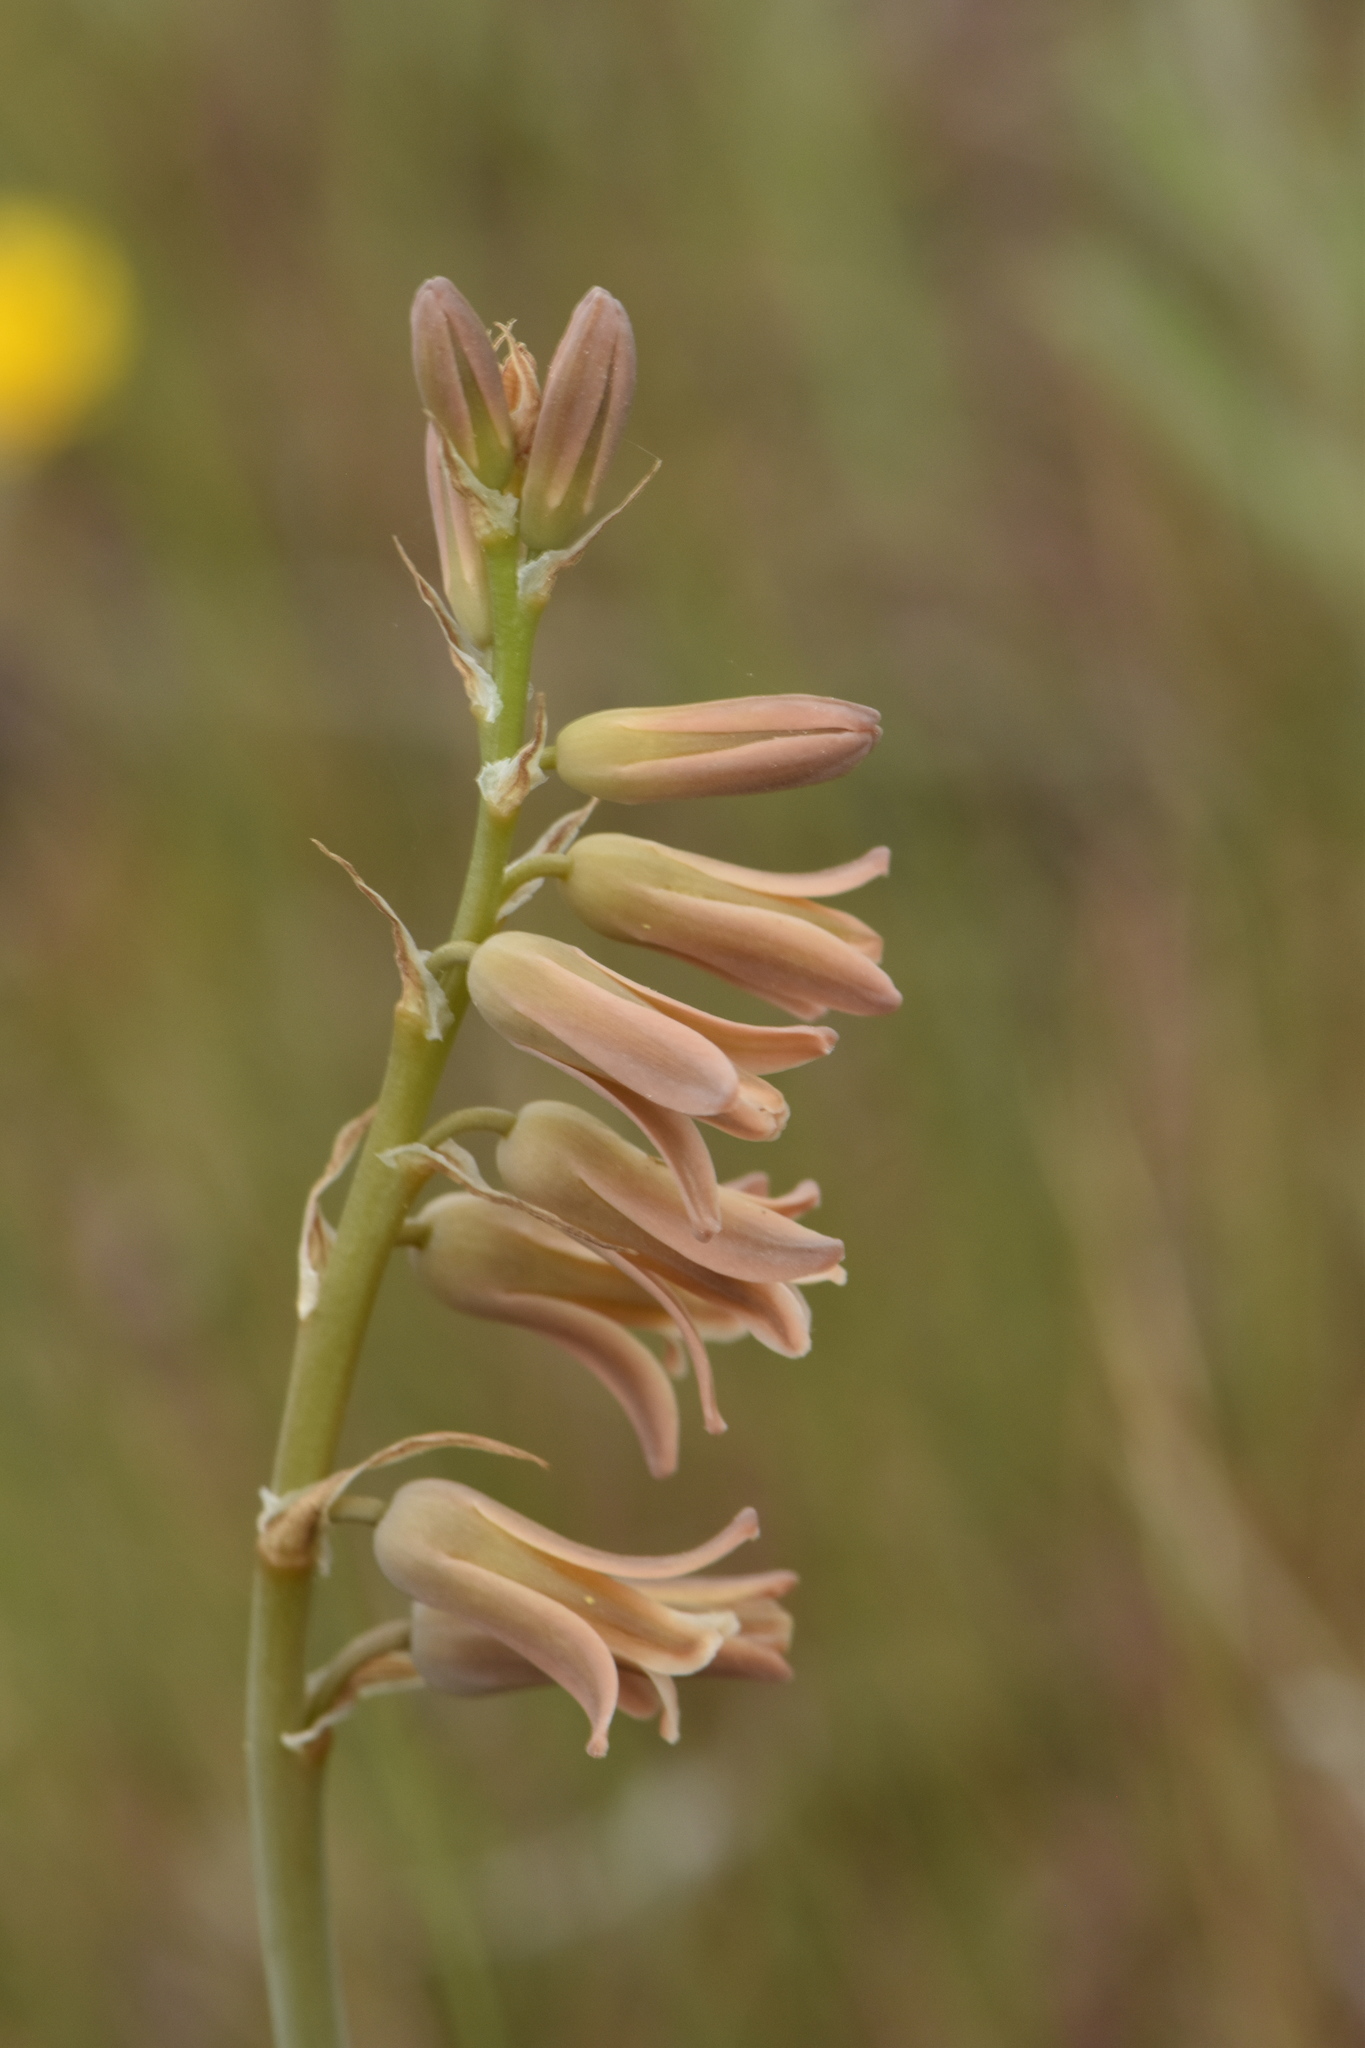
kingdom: Plantae
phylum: Tracheophyta
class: Liliopsida
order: Asparagales
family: Asparagaceae
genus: Dipcadi
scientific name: Dipcadi serotinum
